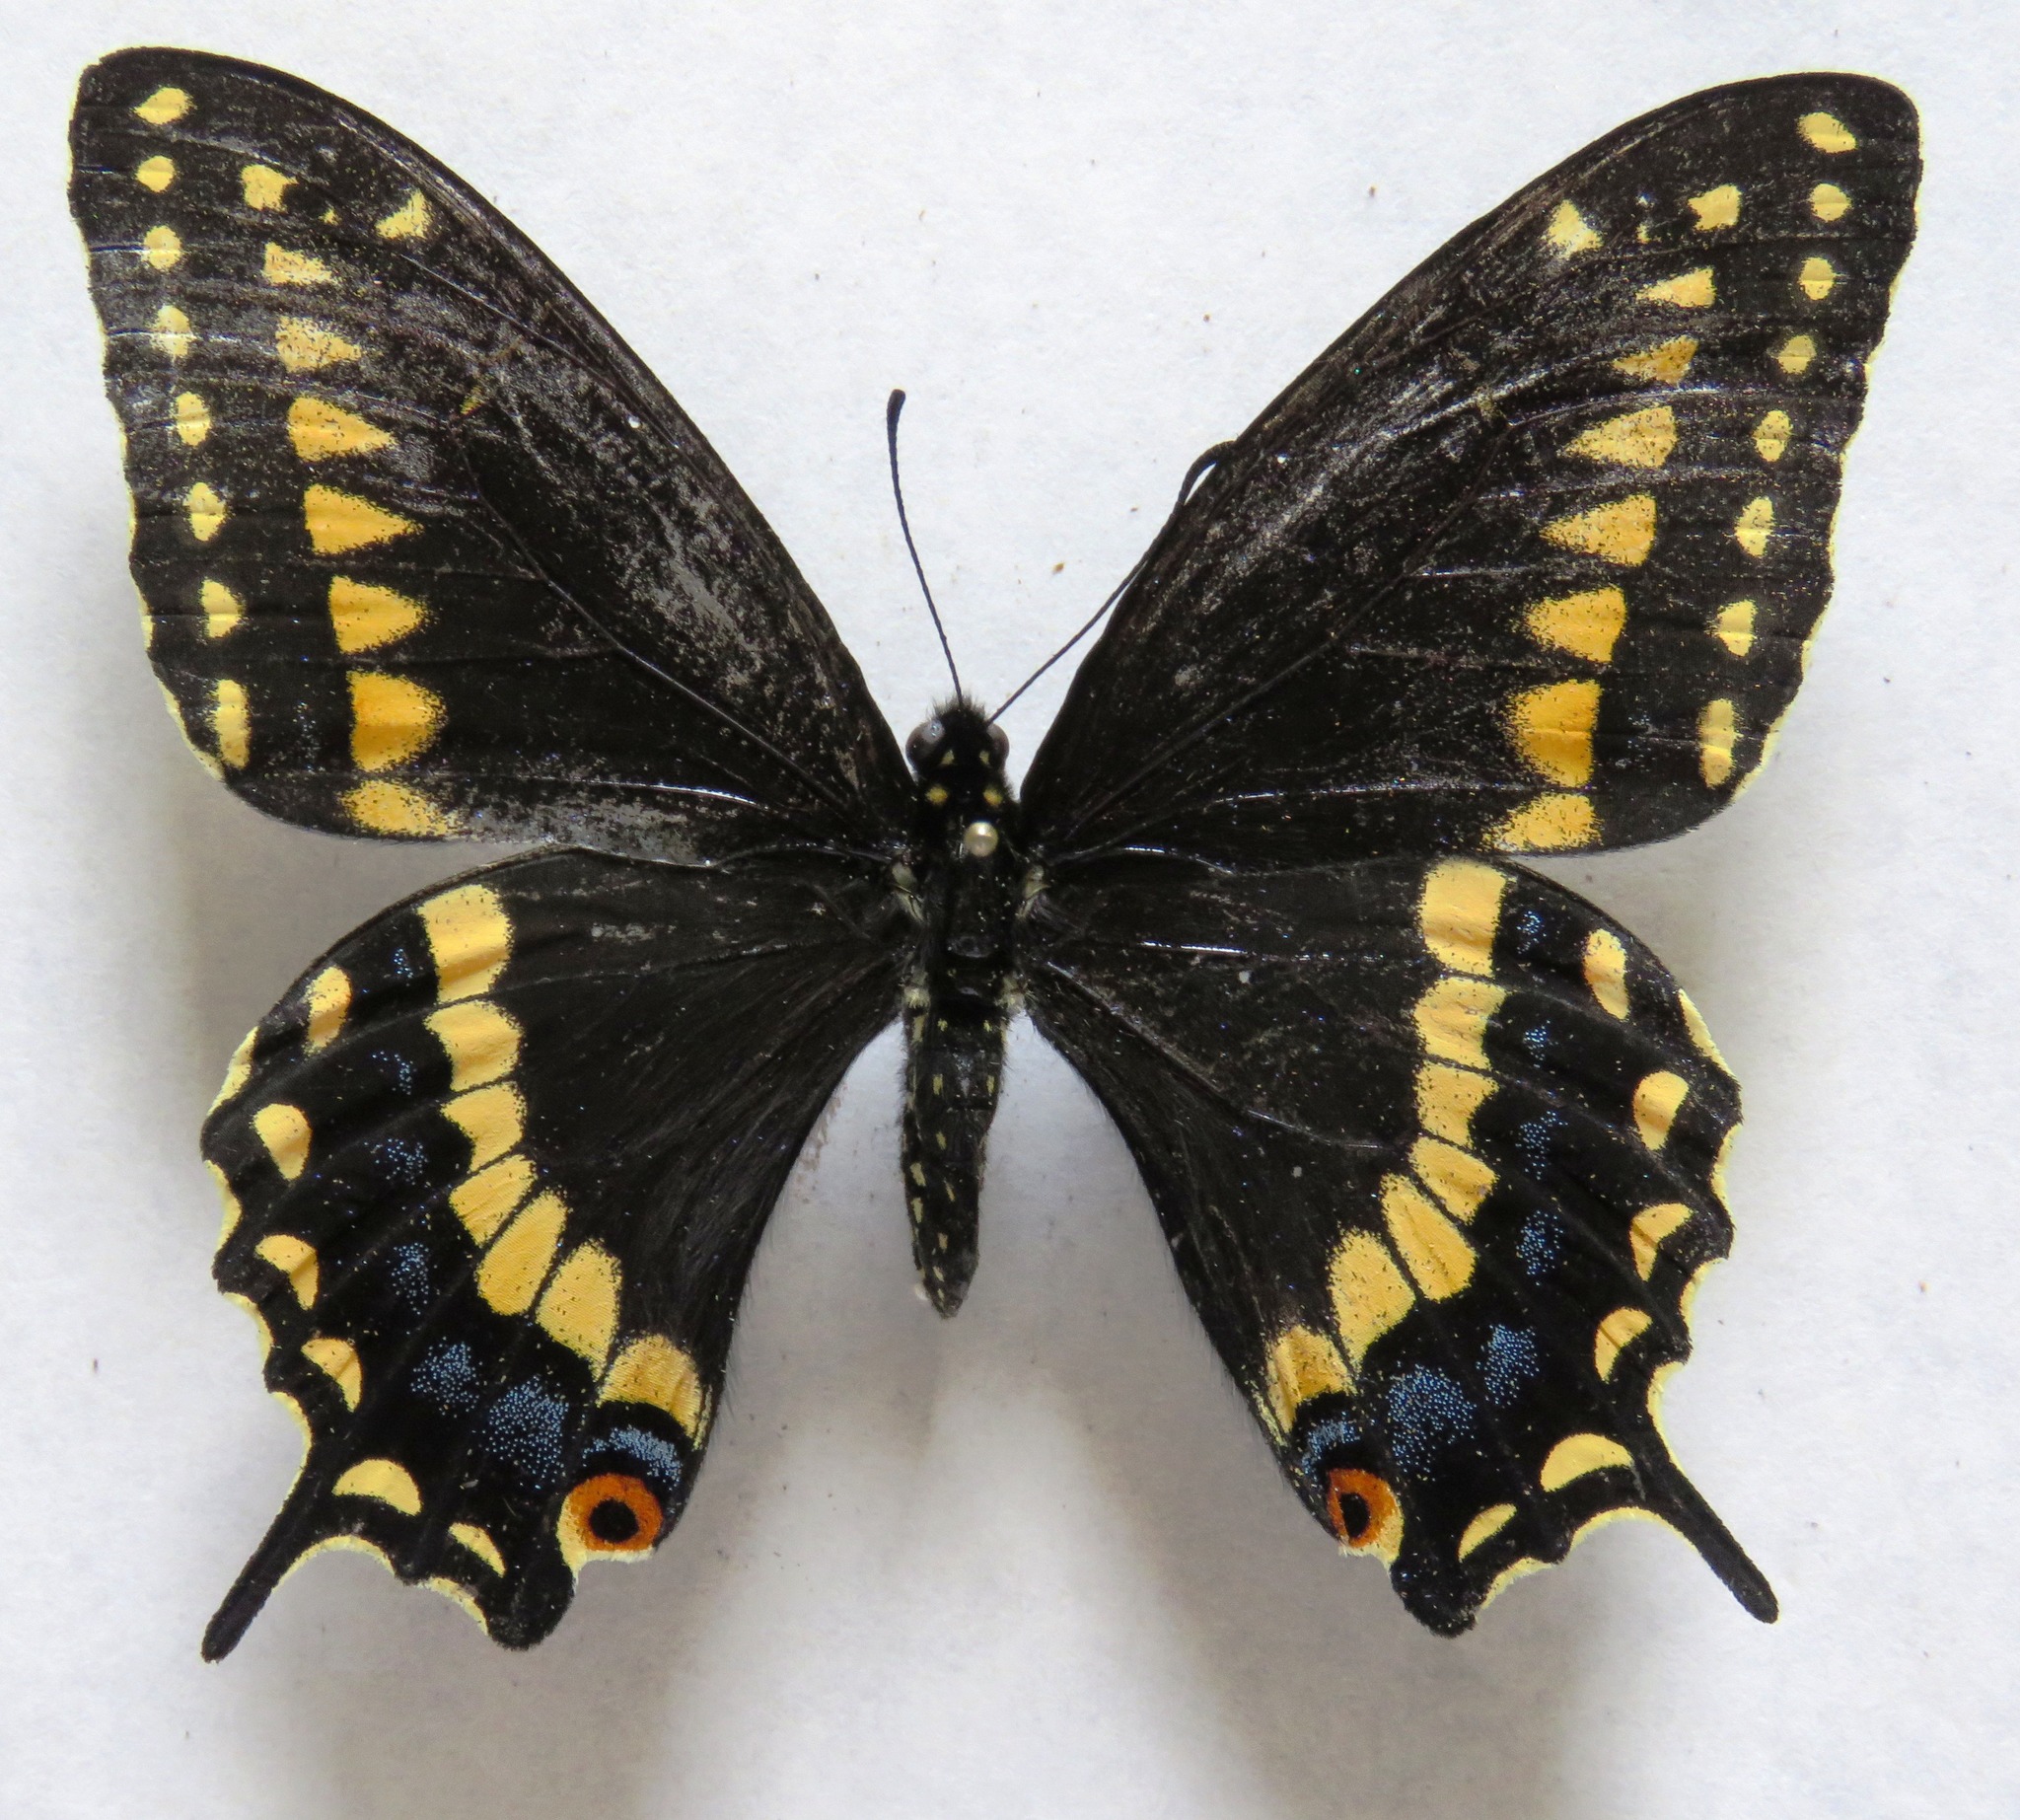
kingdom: Animalia
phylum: Arthropoda
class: Insecta
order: Lepidoptera
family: Papilionidae
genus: Papilio
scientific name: Papilio polyxenes
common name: Black swallowtail
